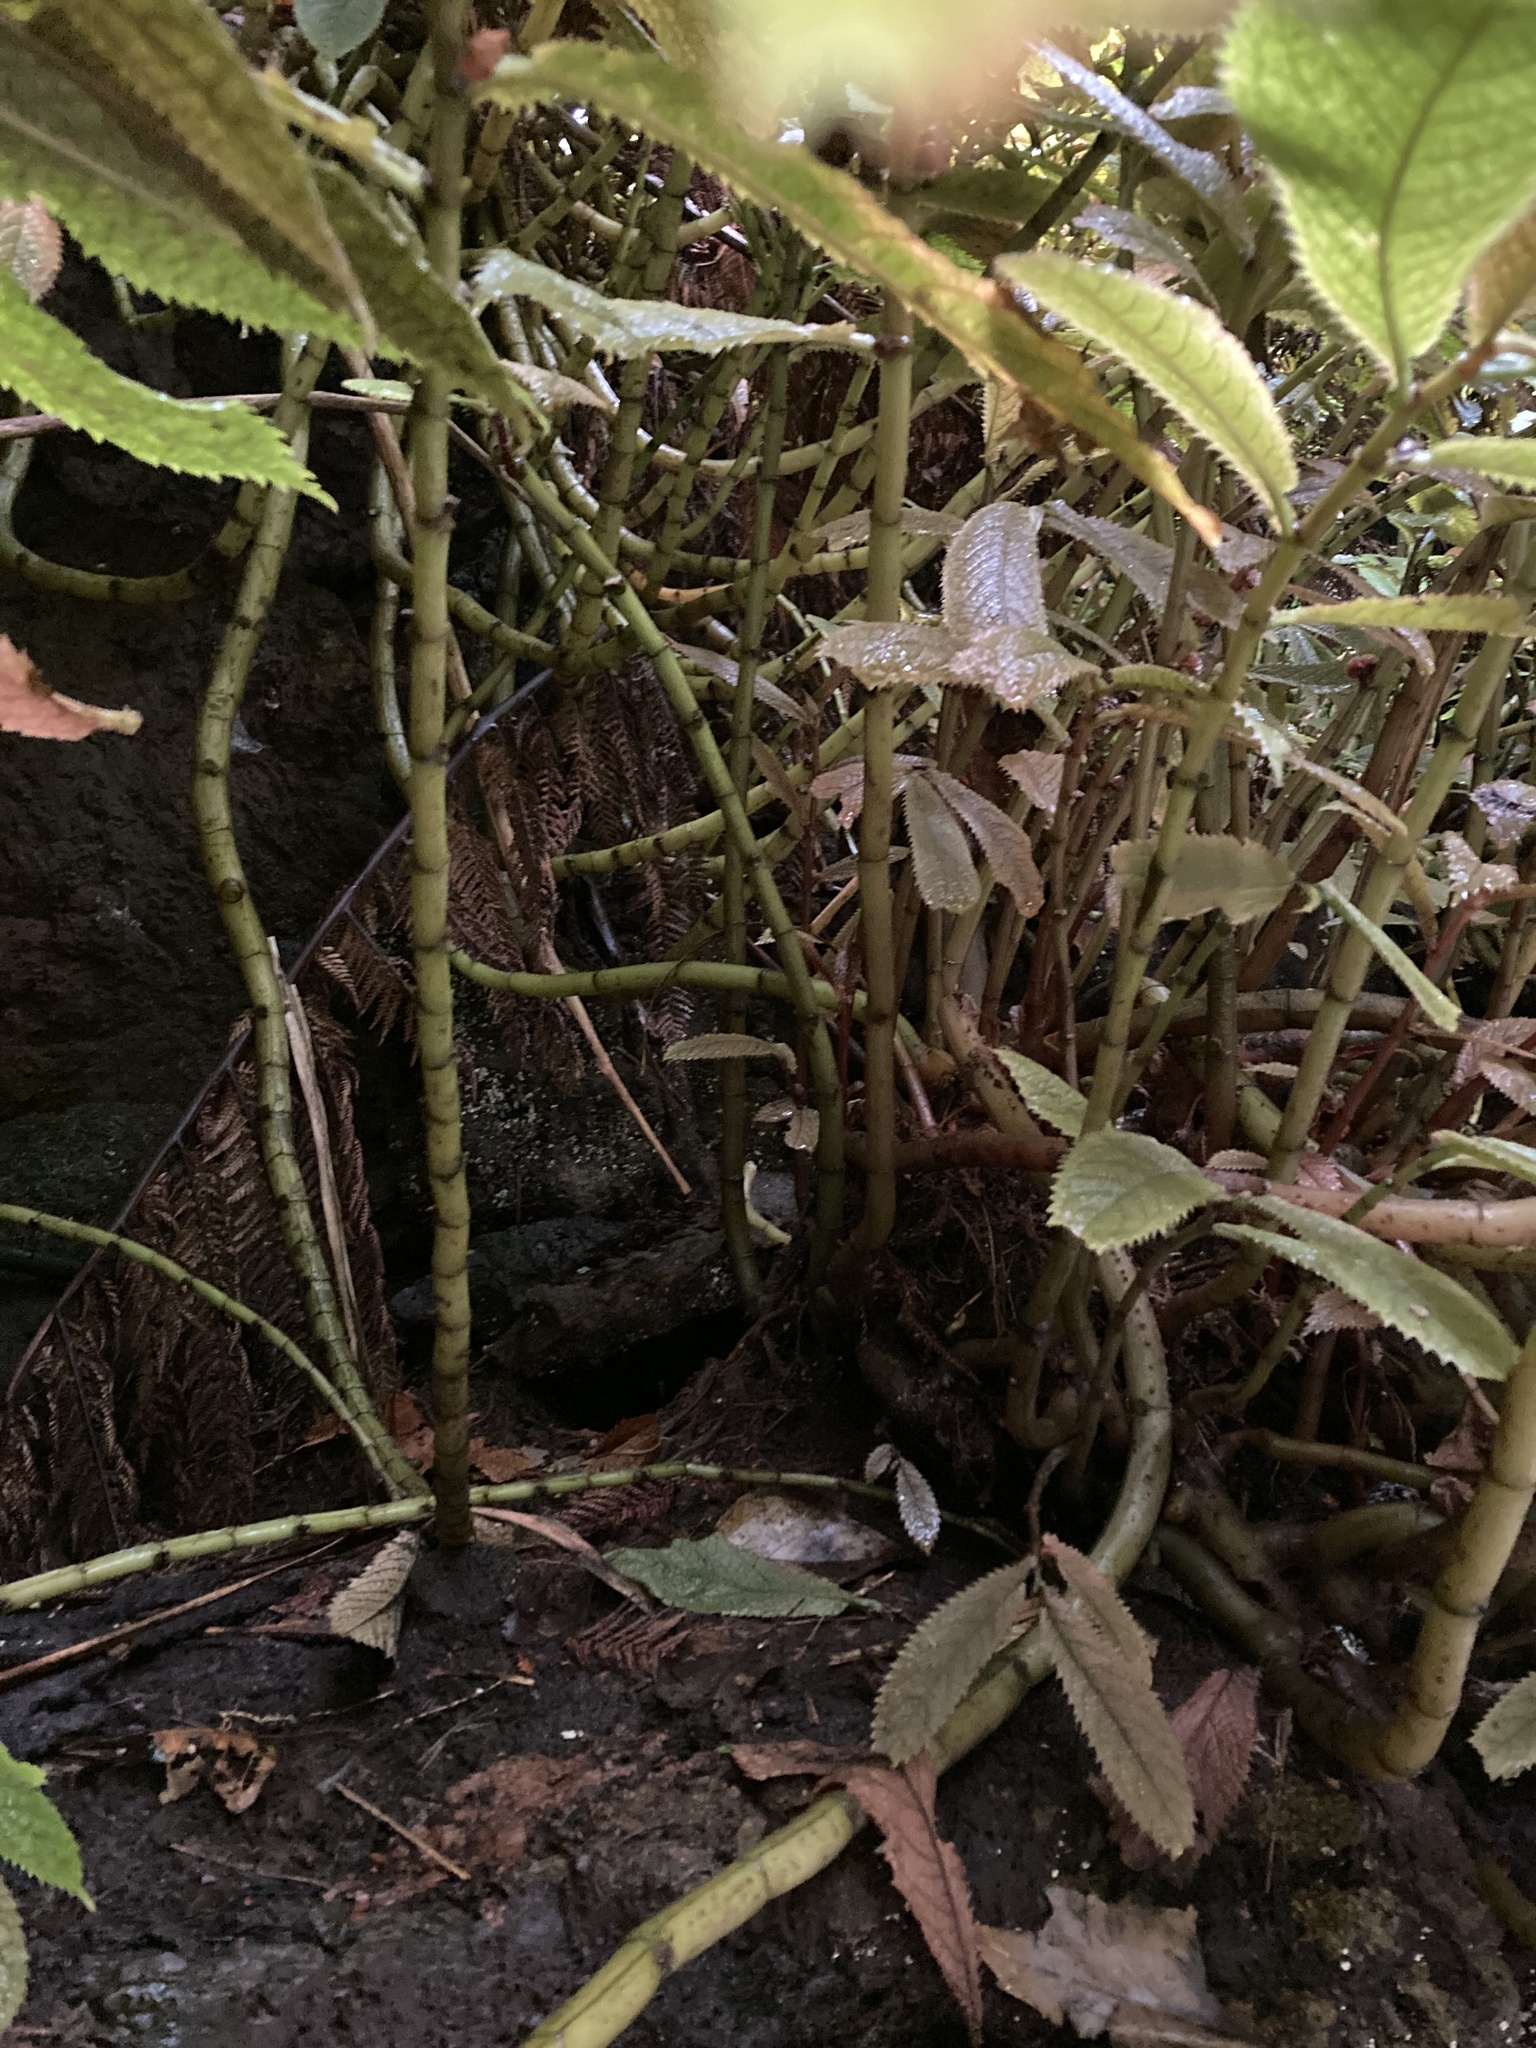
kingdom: Plantae
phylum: Tracheophyta
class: Magnoliopsida
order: Rosales
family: Urticaceae
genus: Elatostema
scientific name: Elatostema rugosum
